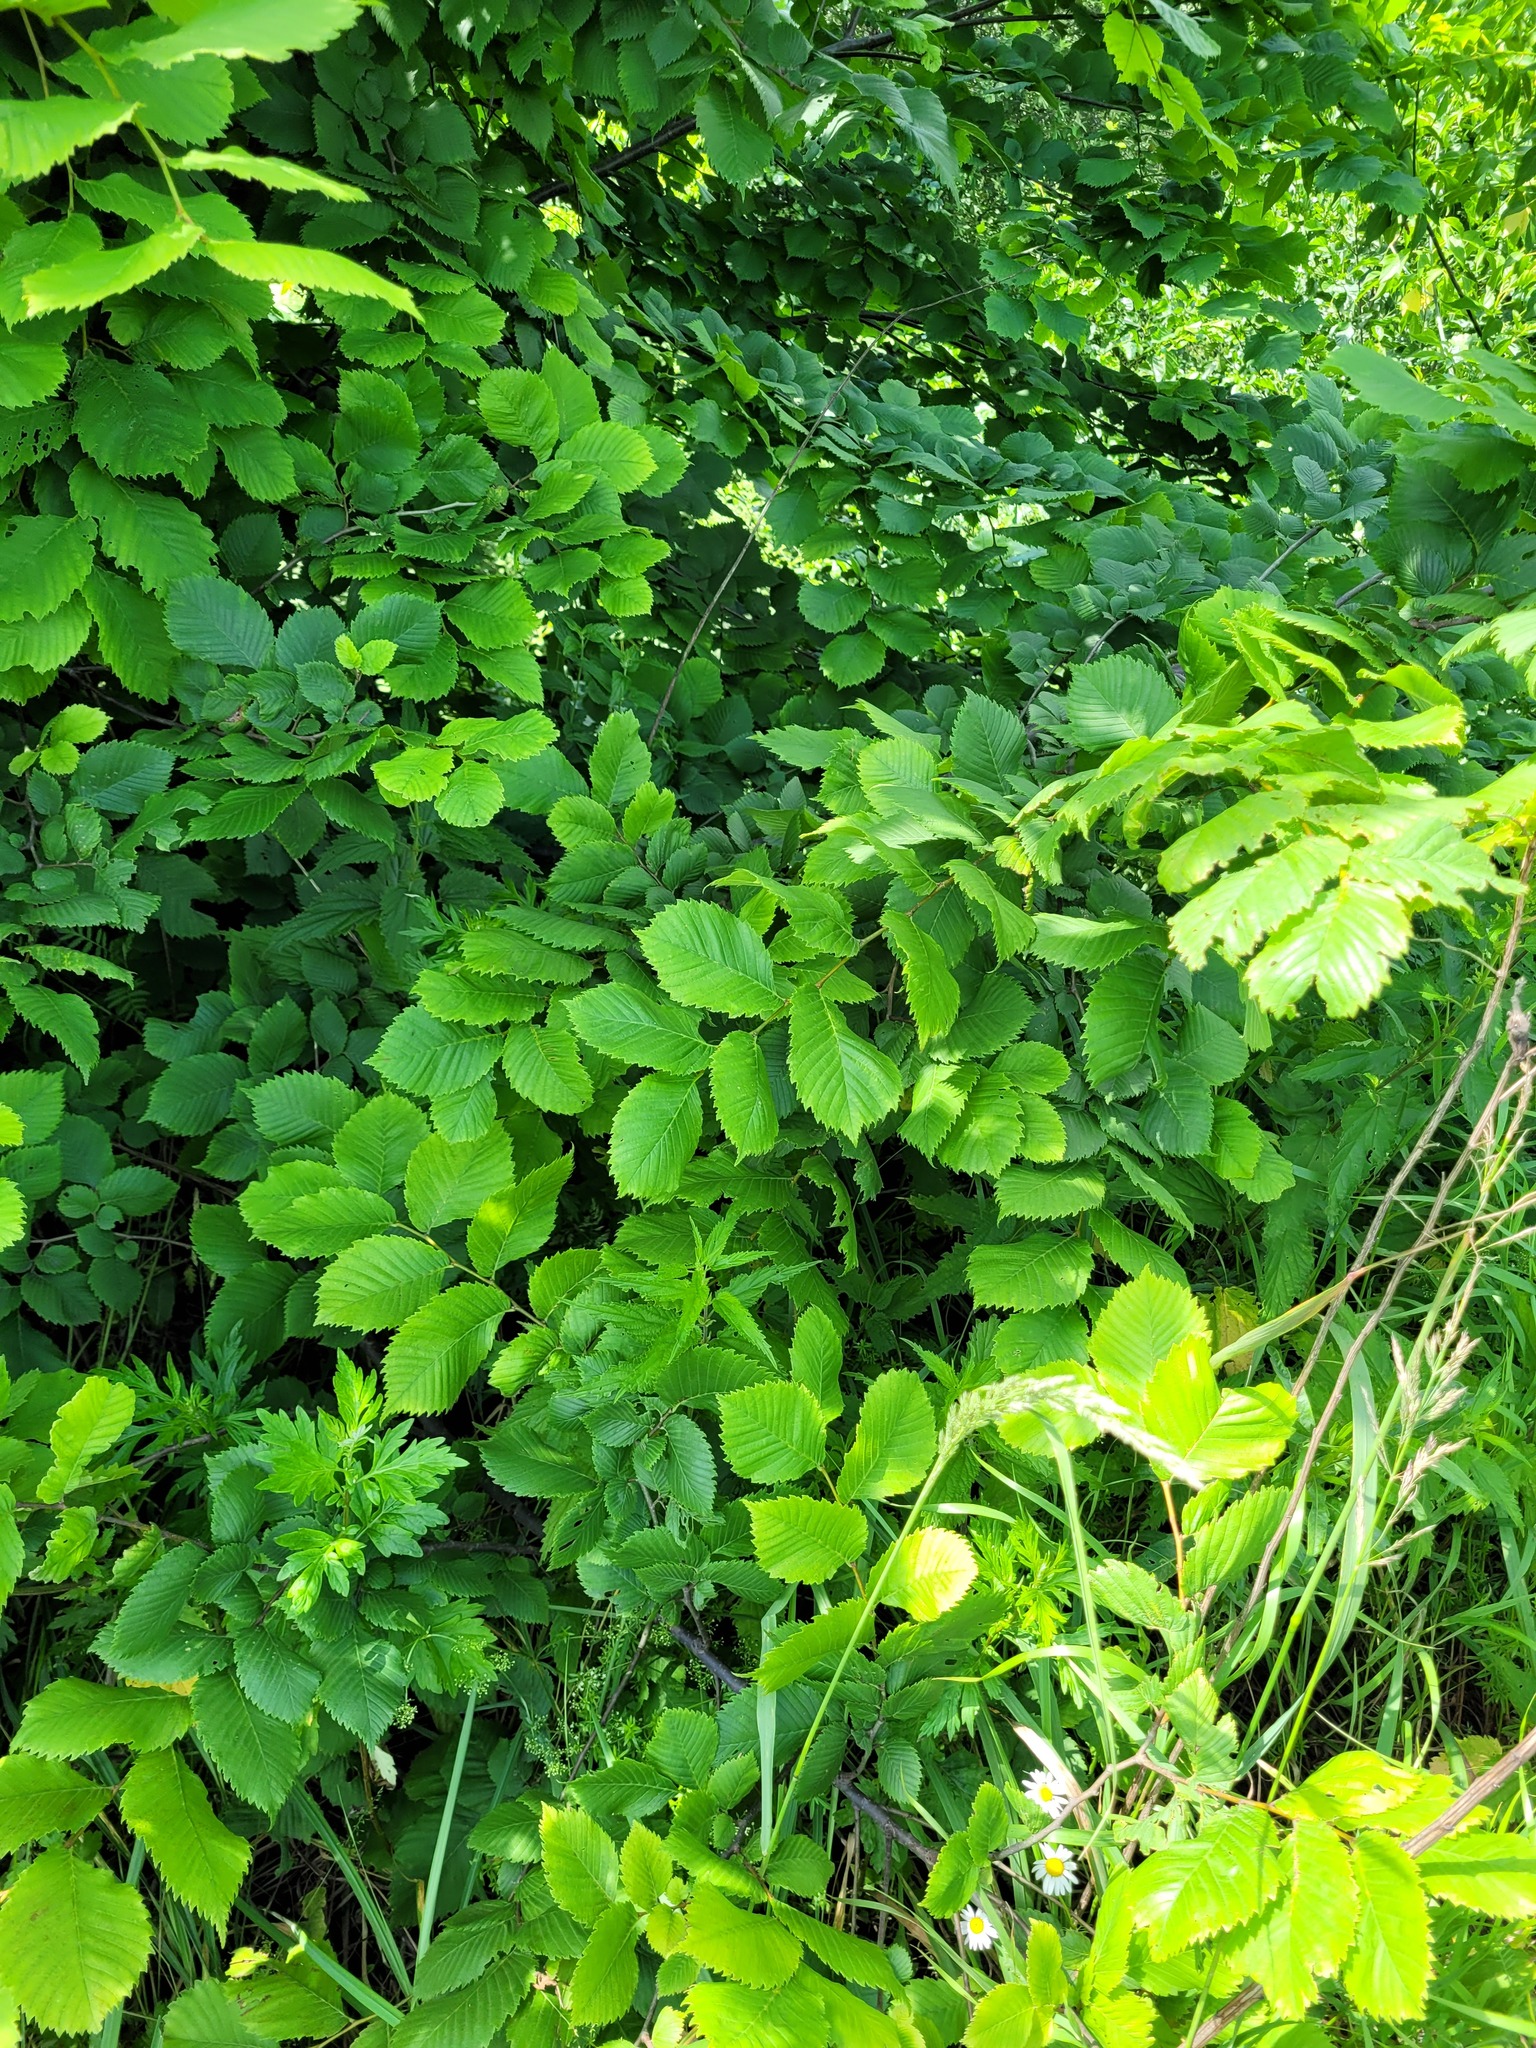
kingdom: Plantae
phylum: Tracheophyta
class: Magnoliopsida
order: Rosales
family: Ulmaceae
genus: Ulmus
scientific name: Ulmus laevis
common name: European white-elm
